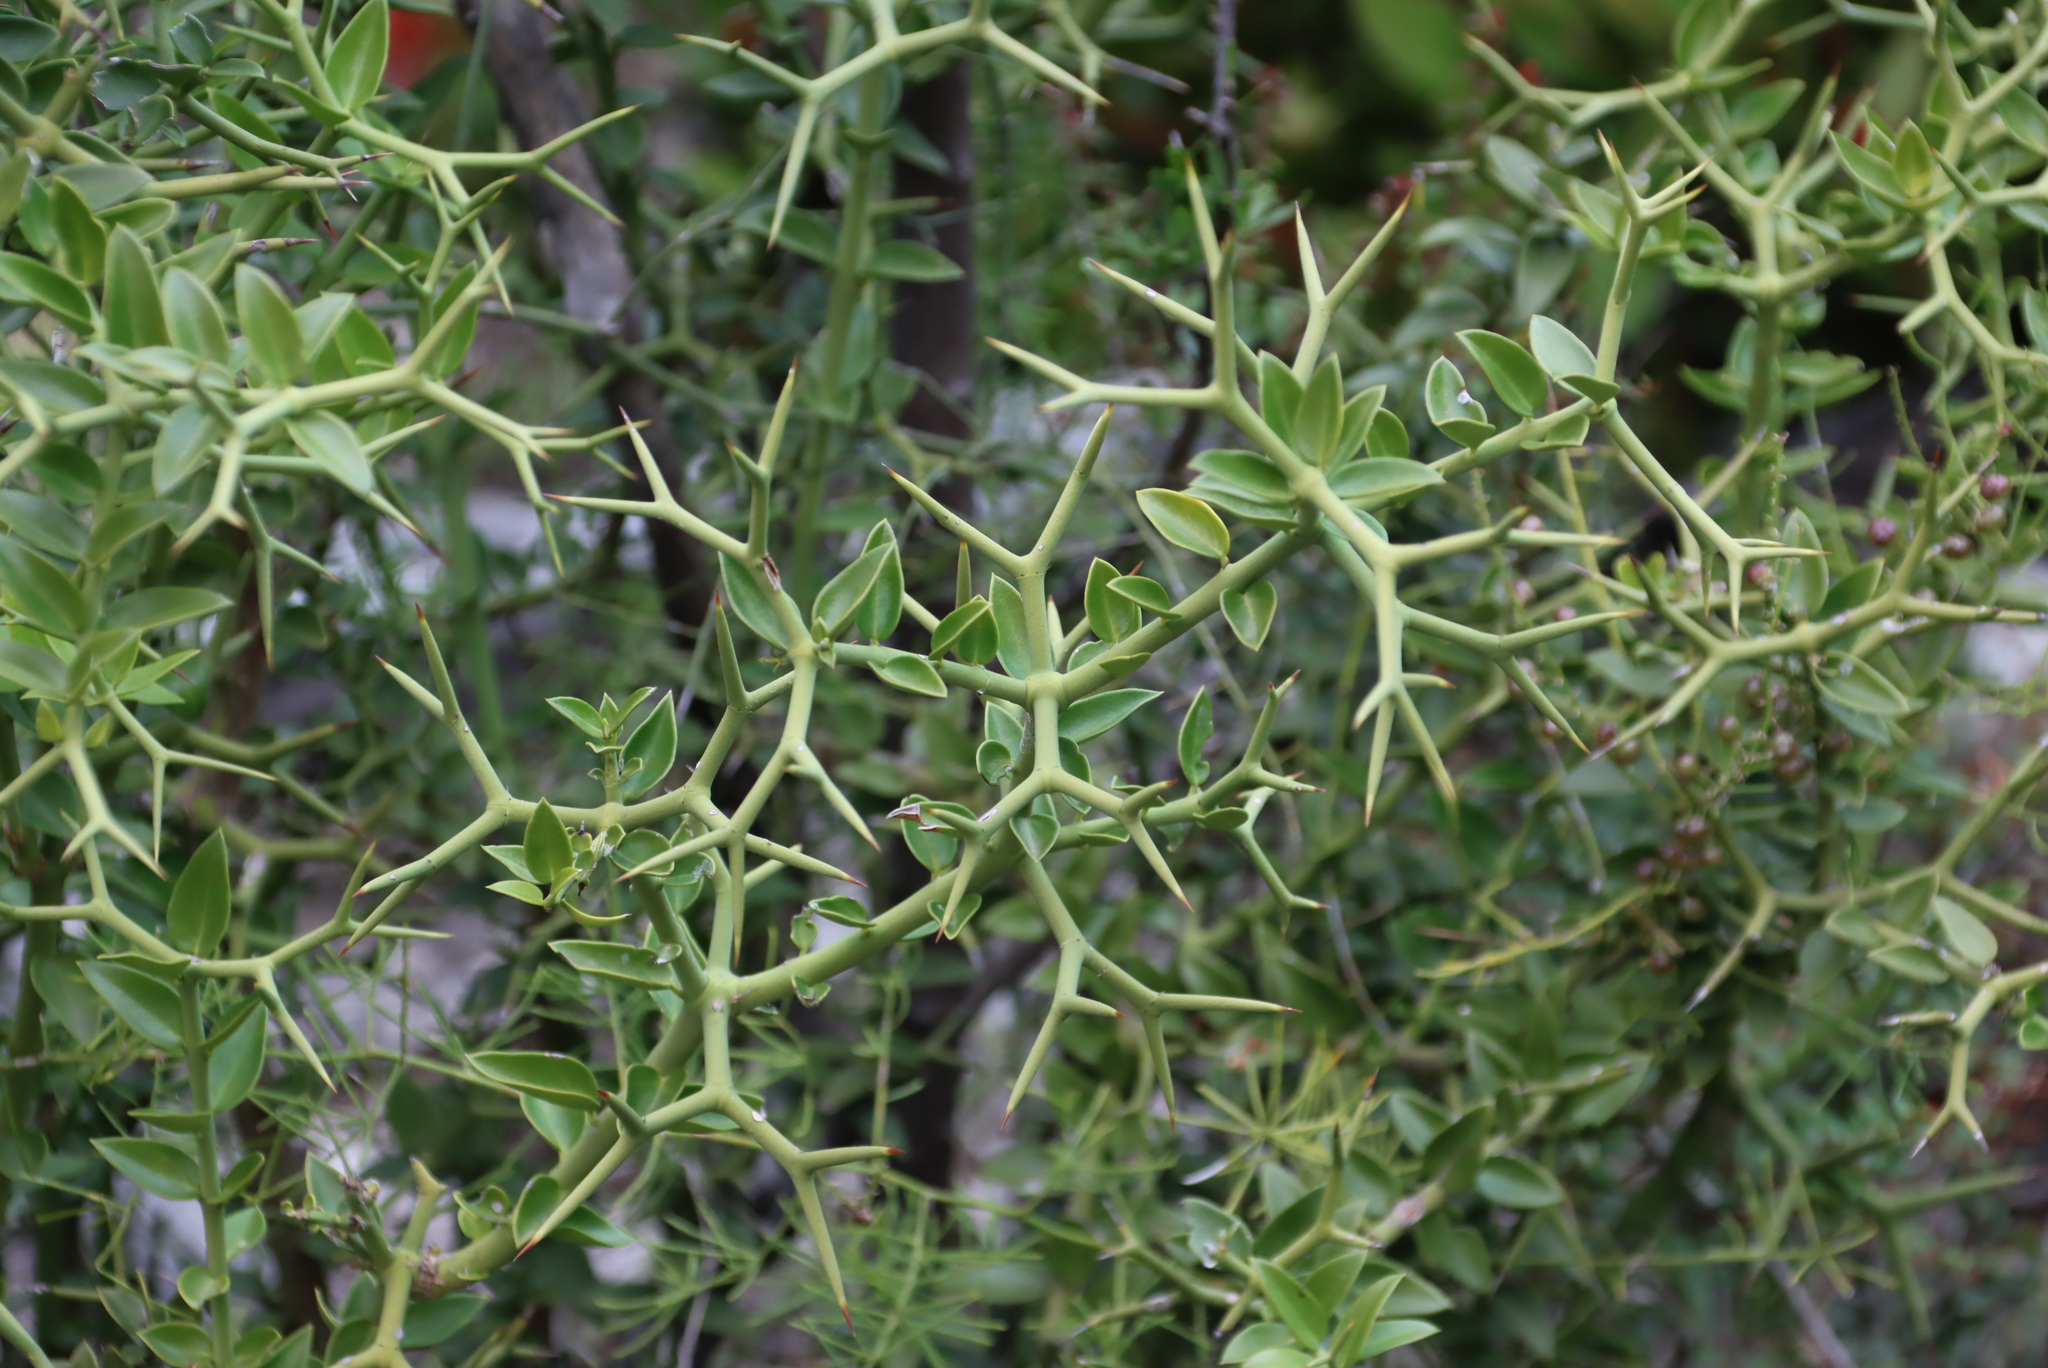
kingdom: Plantae
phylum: Tracheophyta
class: Magnoliopsida
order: Gentianales
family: Apocynaceae
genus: Carissa
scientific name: Carissa haematocarpa
